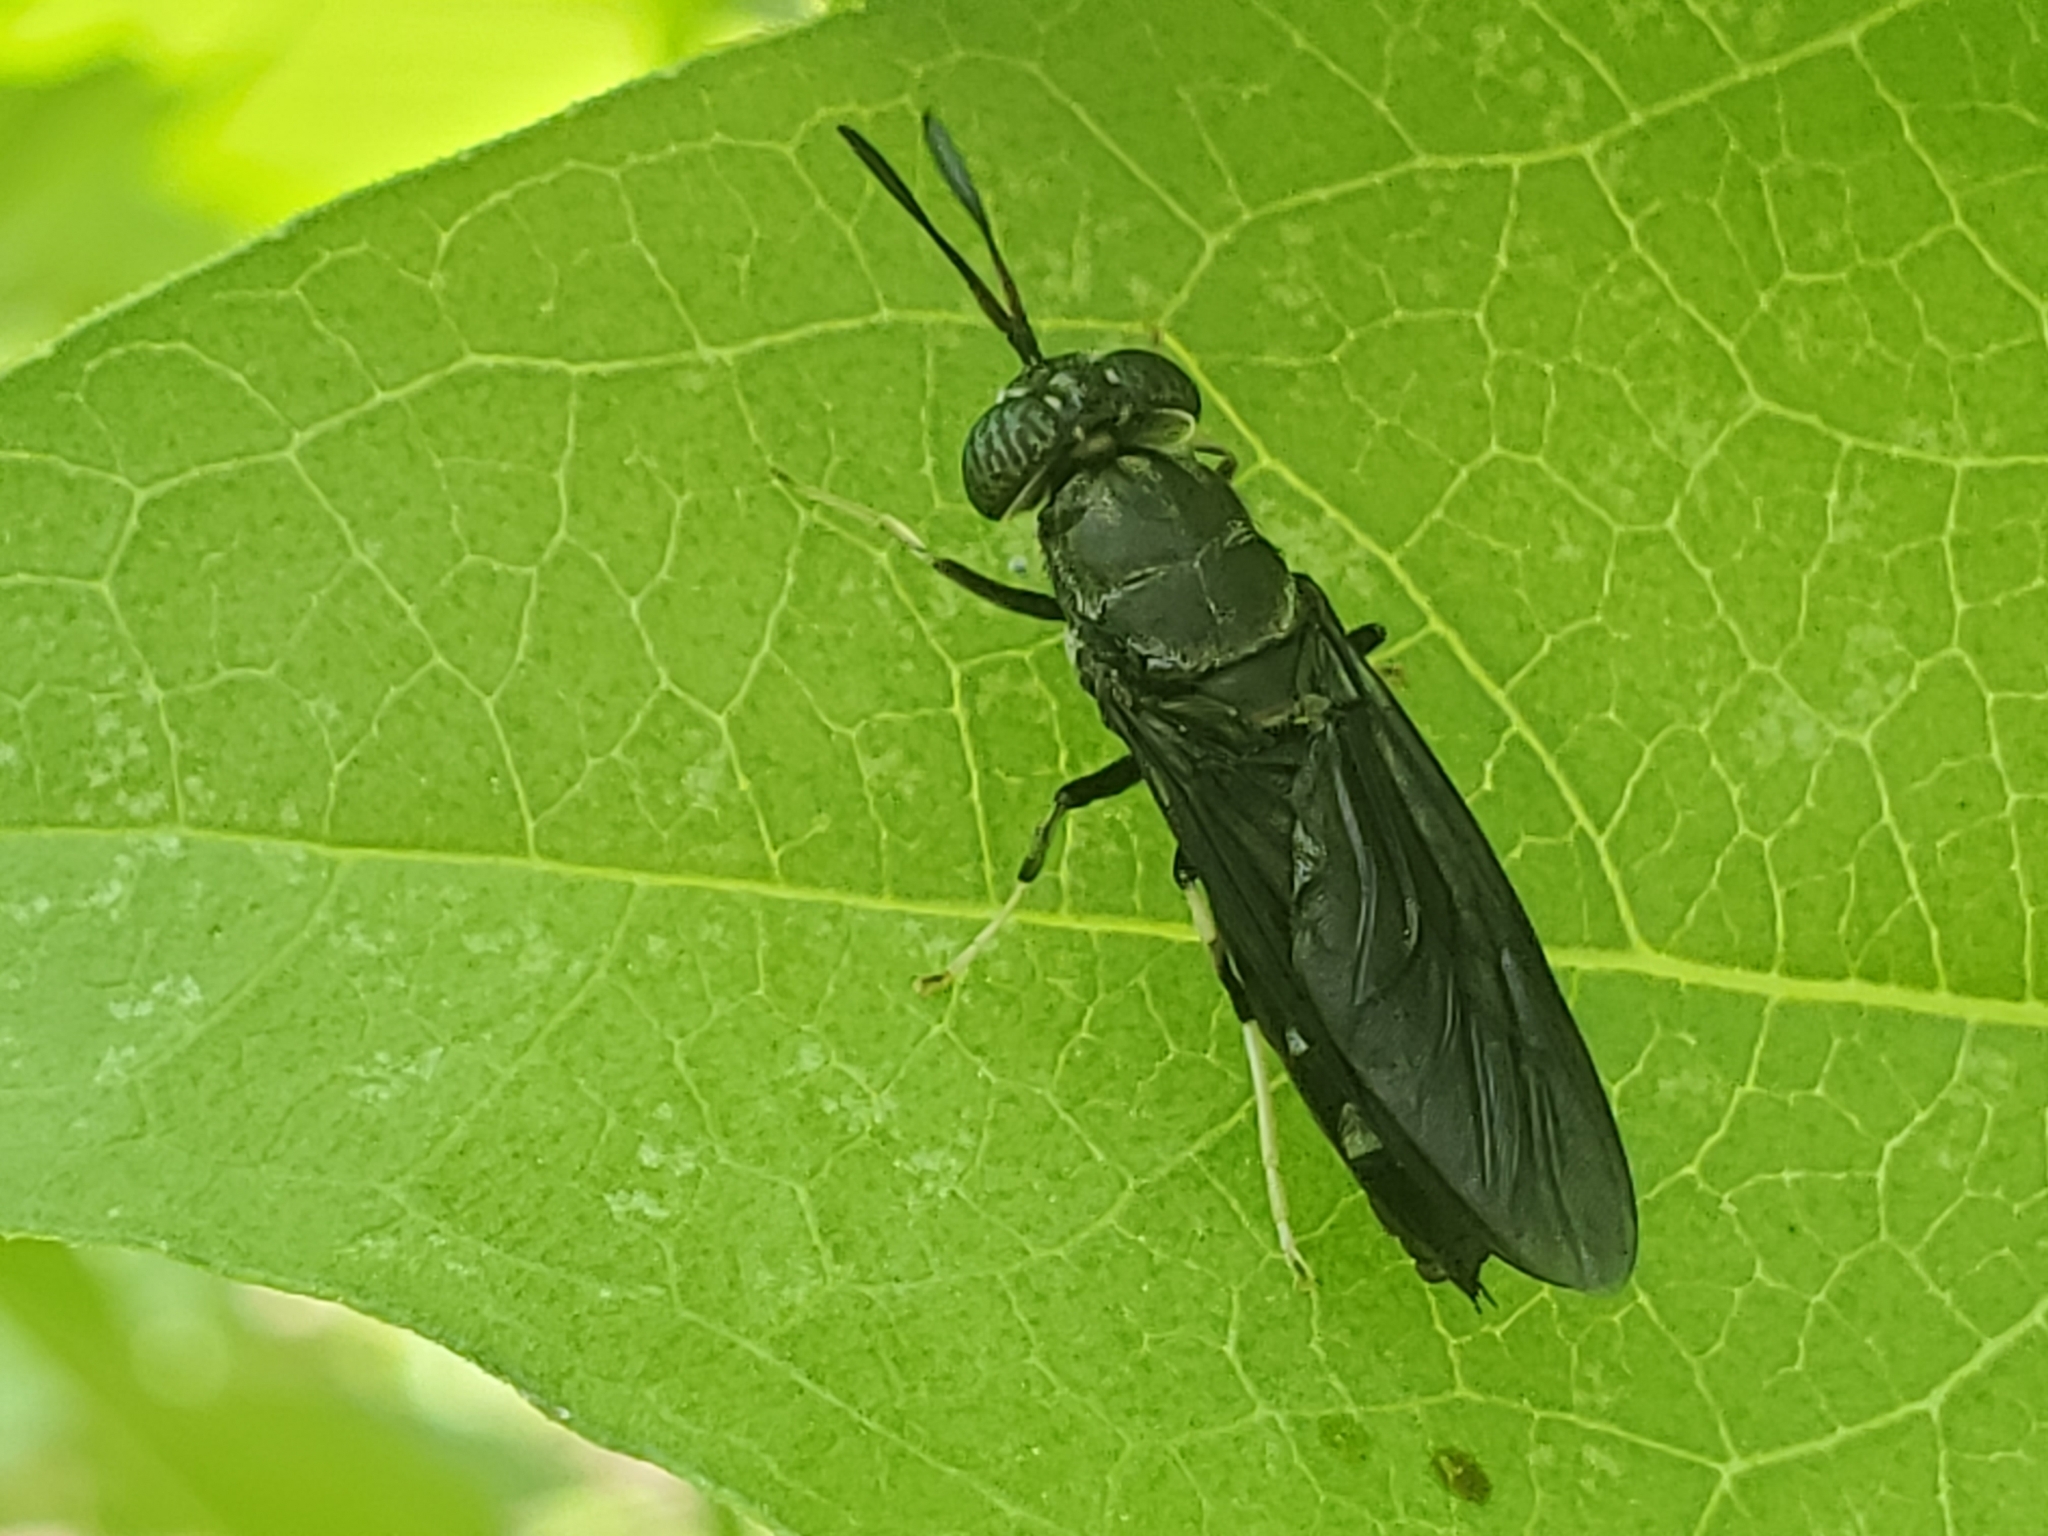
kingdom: Animalia
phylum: Arthropoda
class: Insecta
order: Diptera
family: Stratiomyidae
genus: Hermetia
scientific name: Hermetia illucens
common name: Black soldier fly
